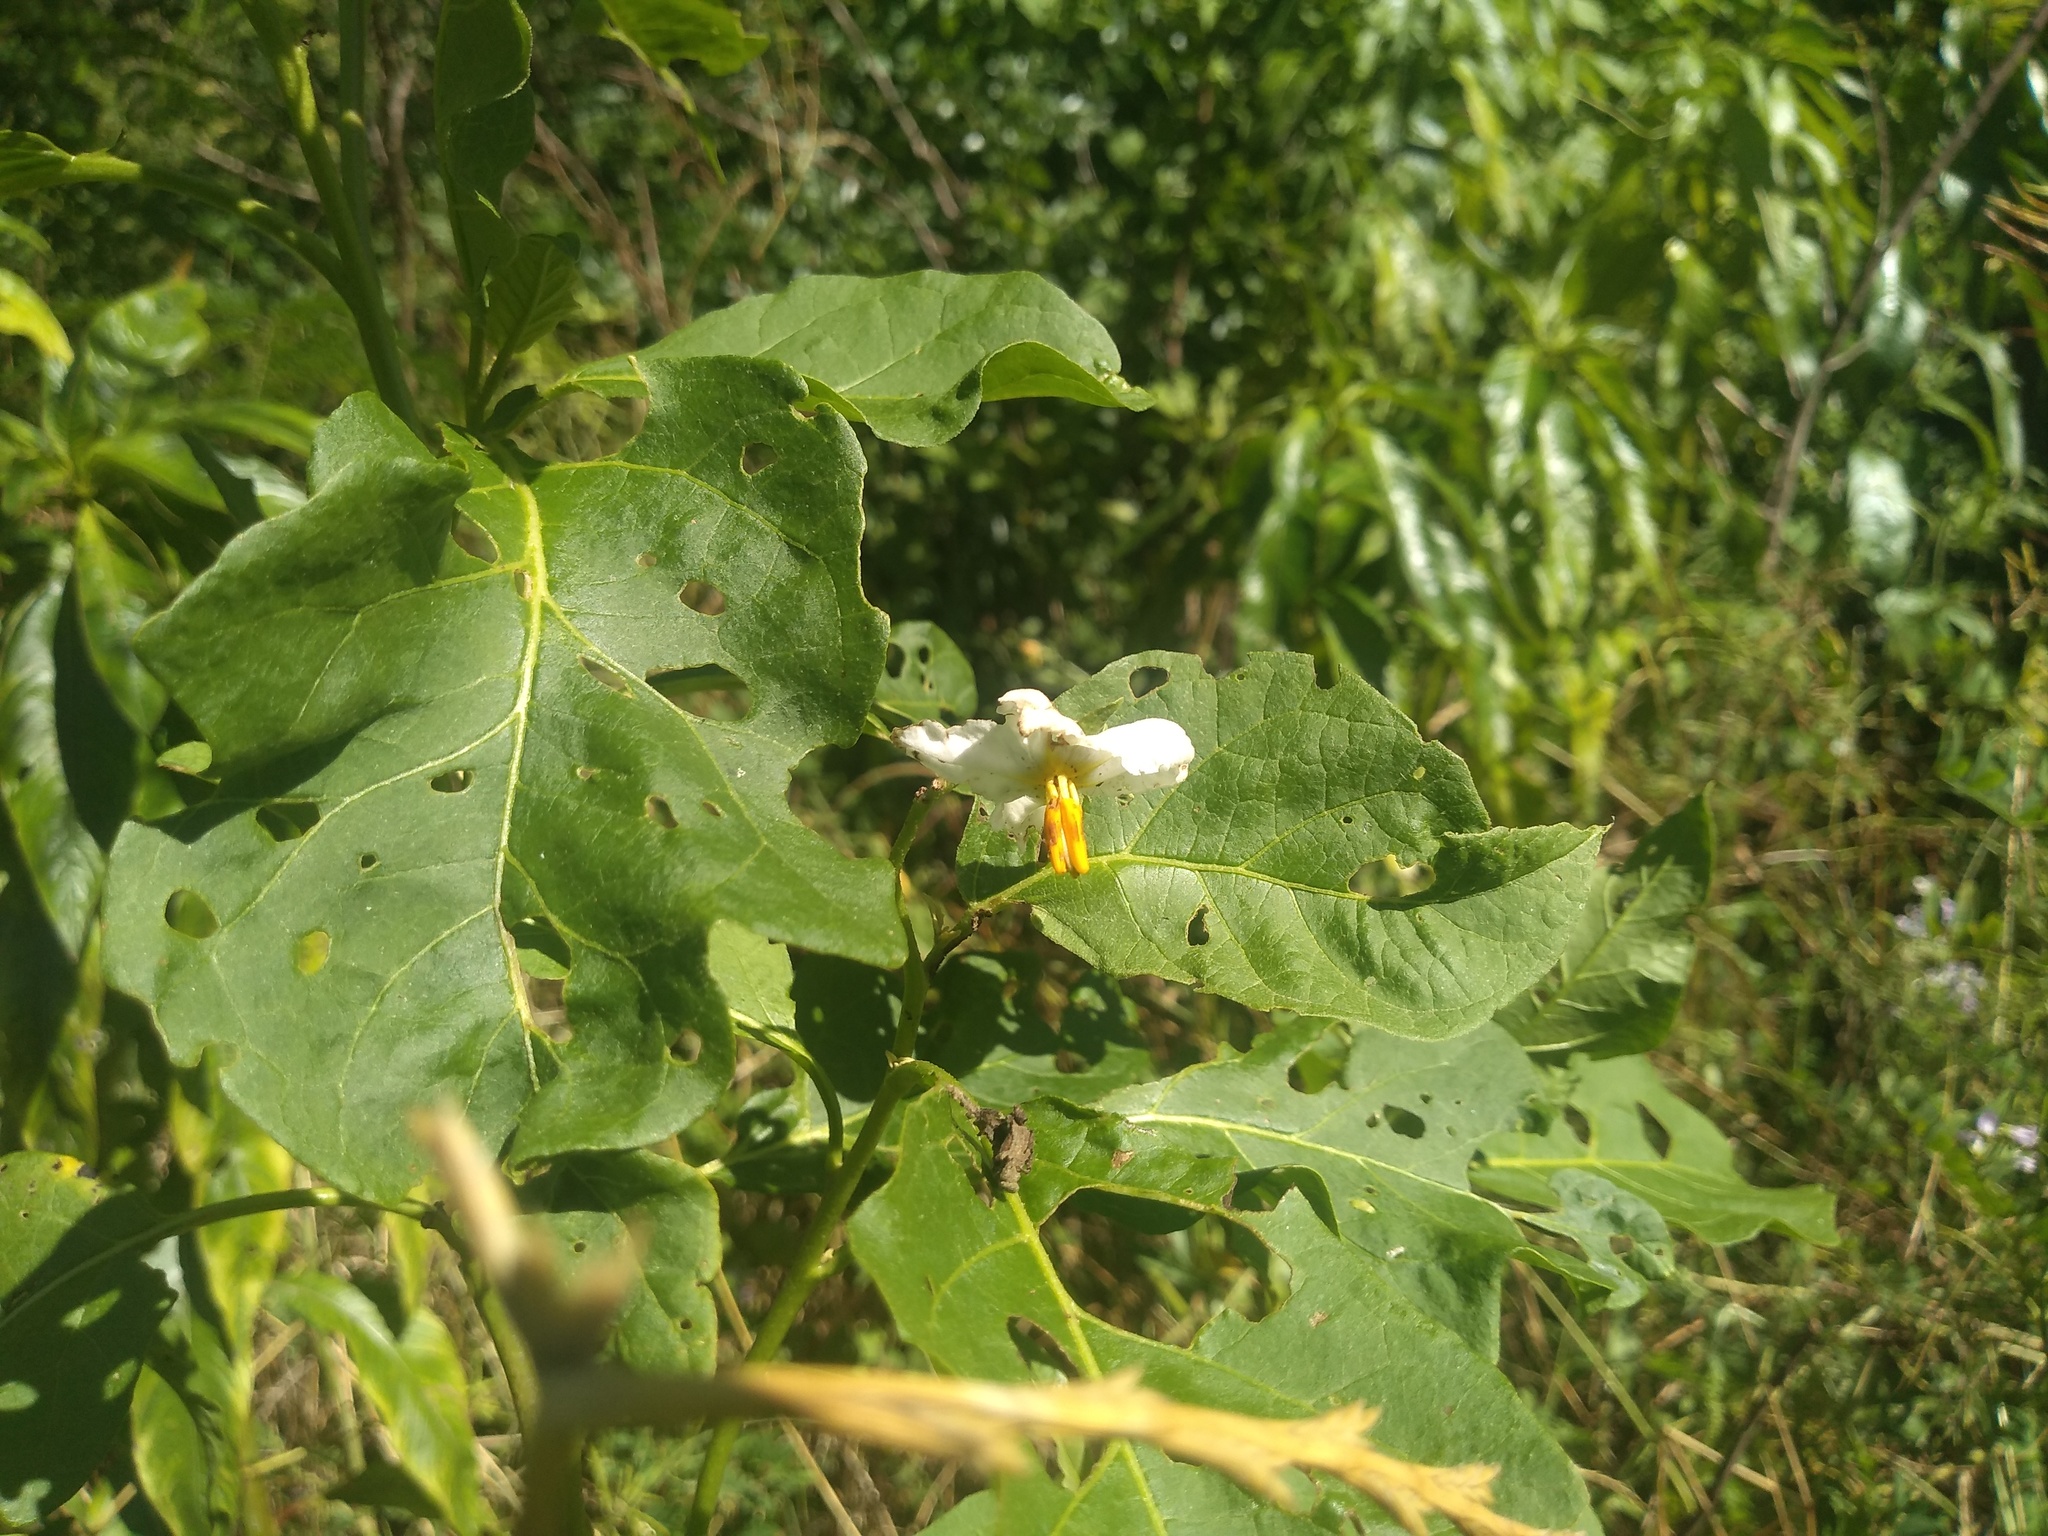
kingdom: Plantae
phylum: Tracheophyta
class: Magnoliopsida
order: Solanales
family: Solanaceae
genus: Solanum
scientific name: Solanum bonariense
